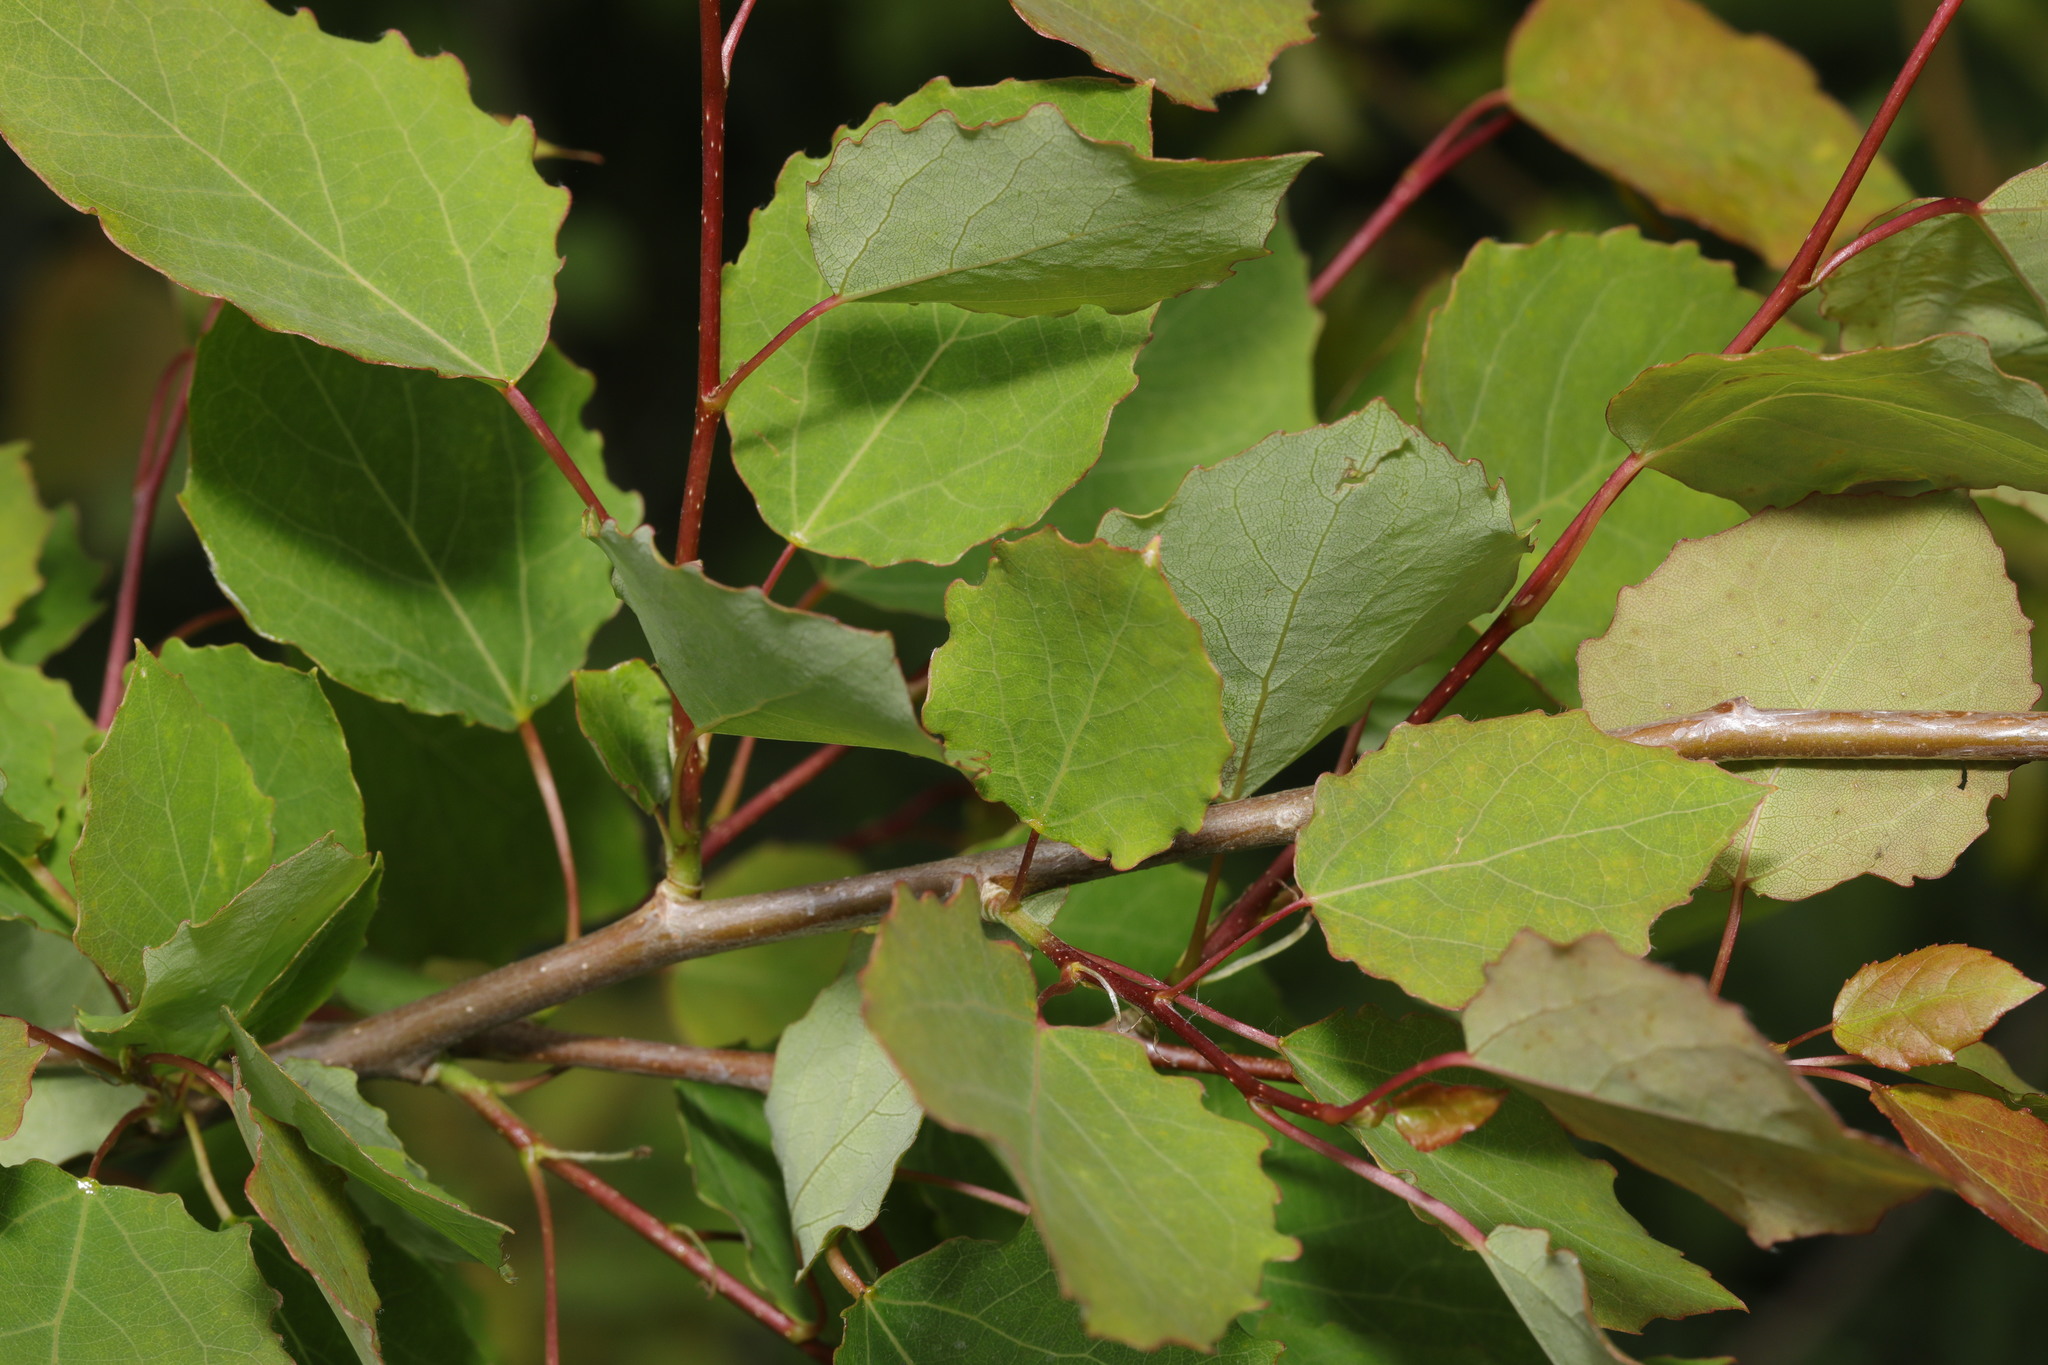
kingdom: Plantae
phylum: Tracheophyta
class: Magnoliopsida
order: Malpighiales
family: Salicaceae
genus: Populus
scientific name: Populus tremula
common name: European aspen
